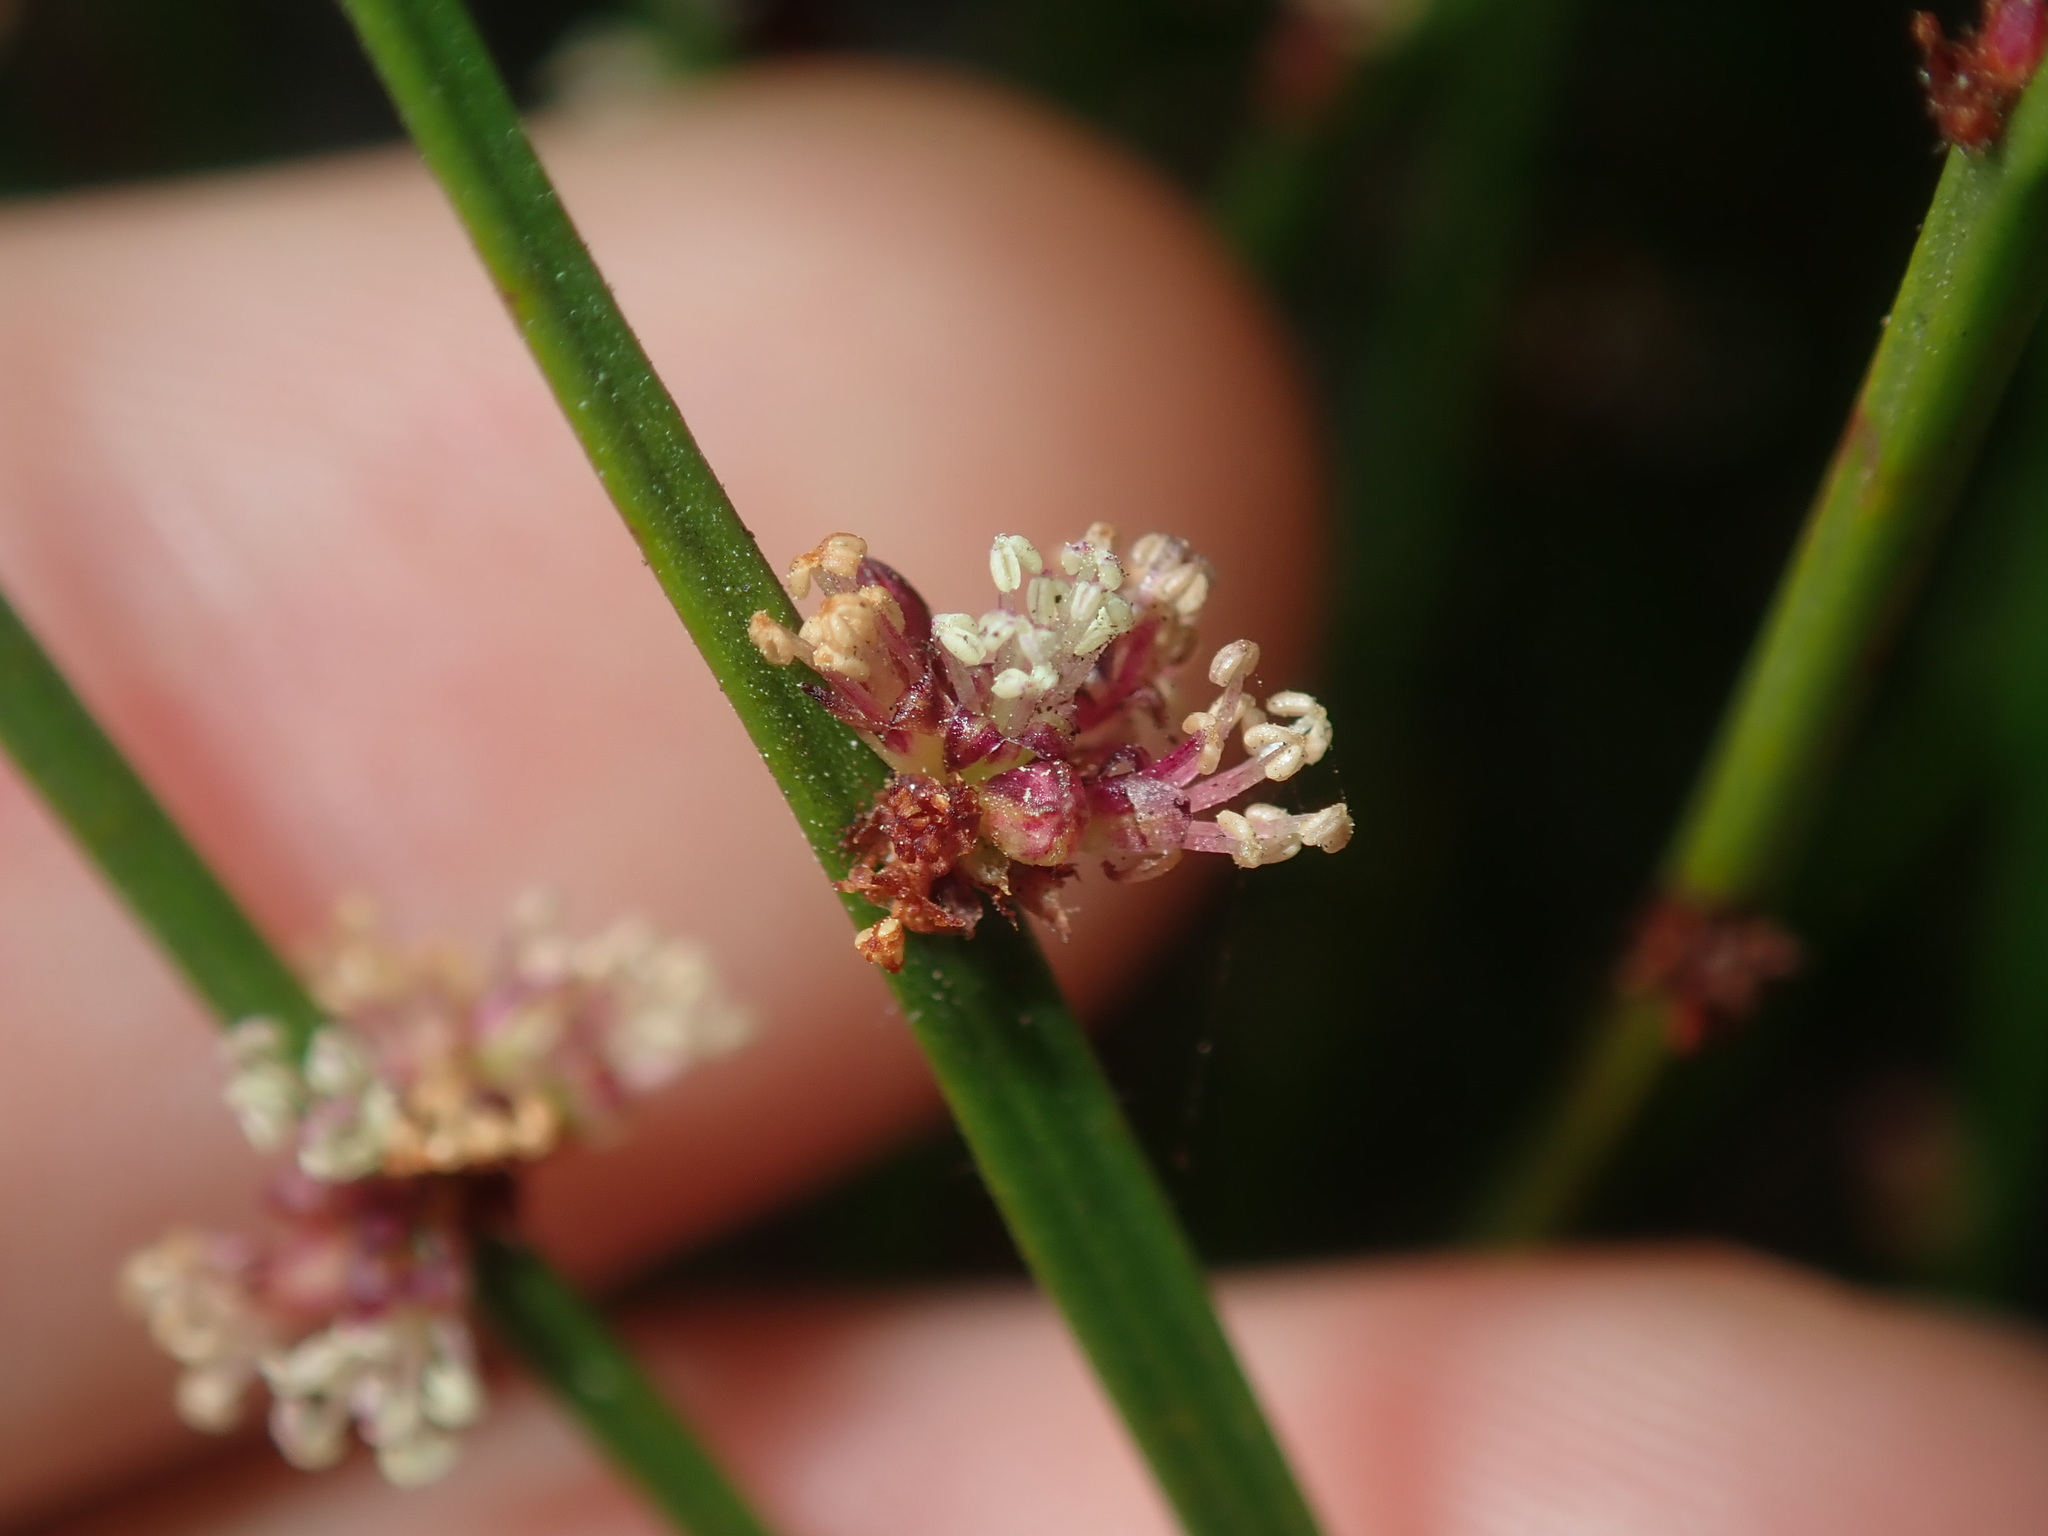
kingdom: Plantae
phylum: Tracheophyta
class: Magnoliopsida
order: Malpighiales
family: Euphorbiaceae
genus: Amperea
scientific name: Amperea xiphoclada
